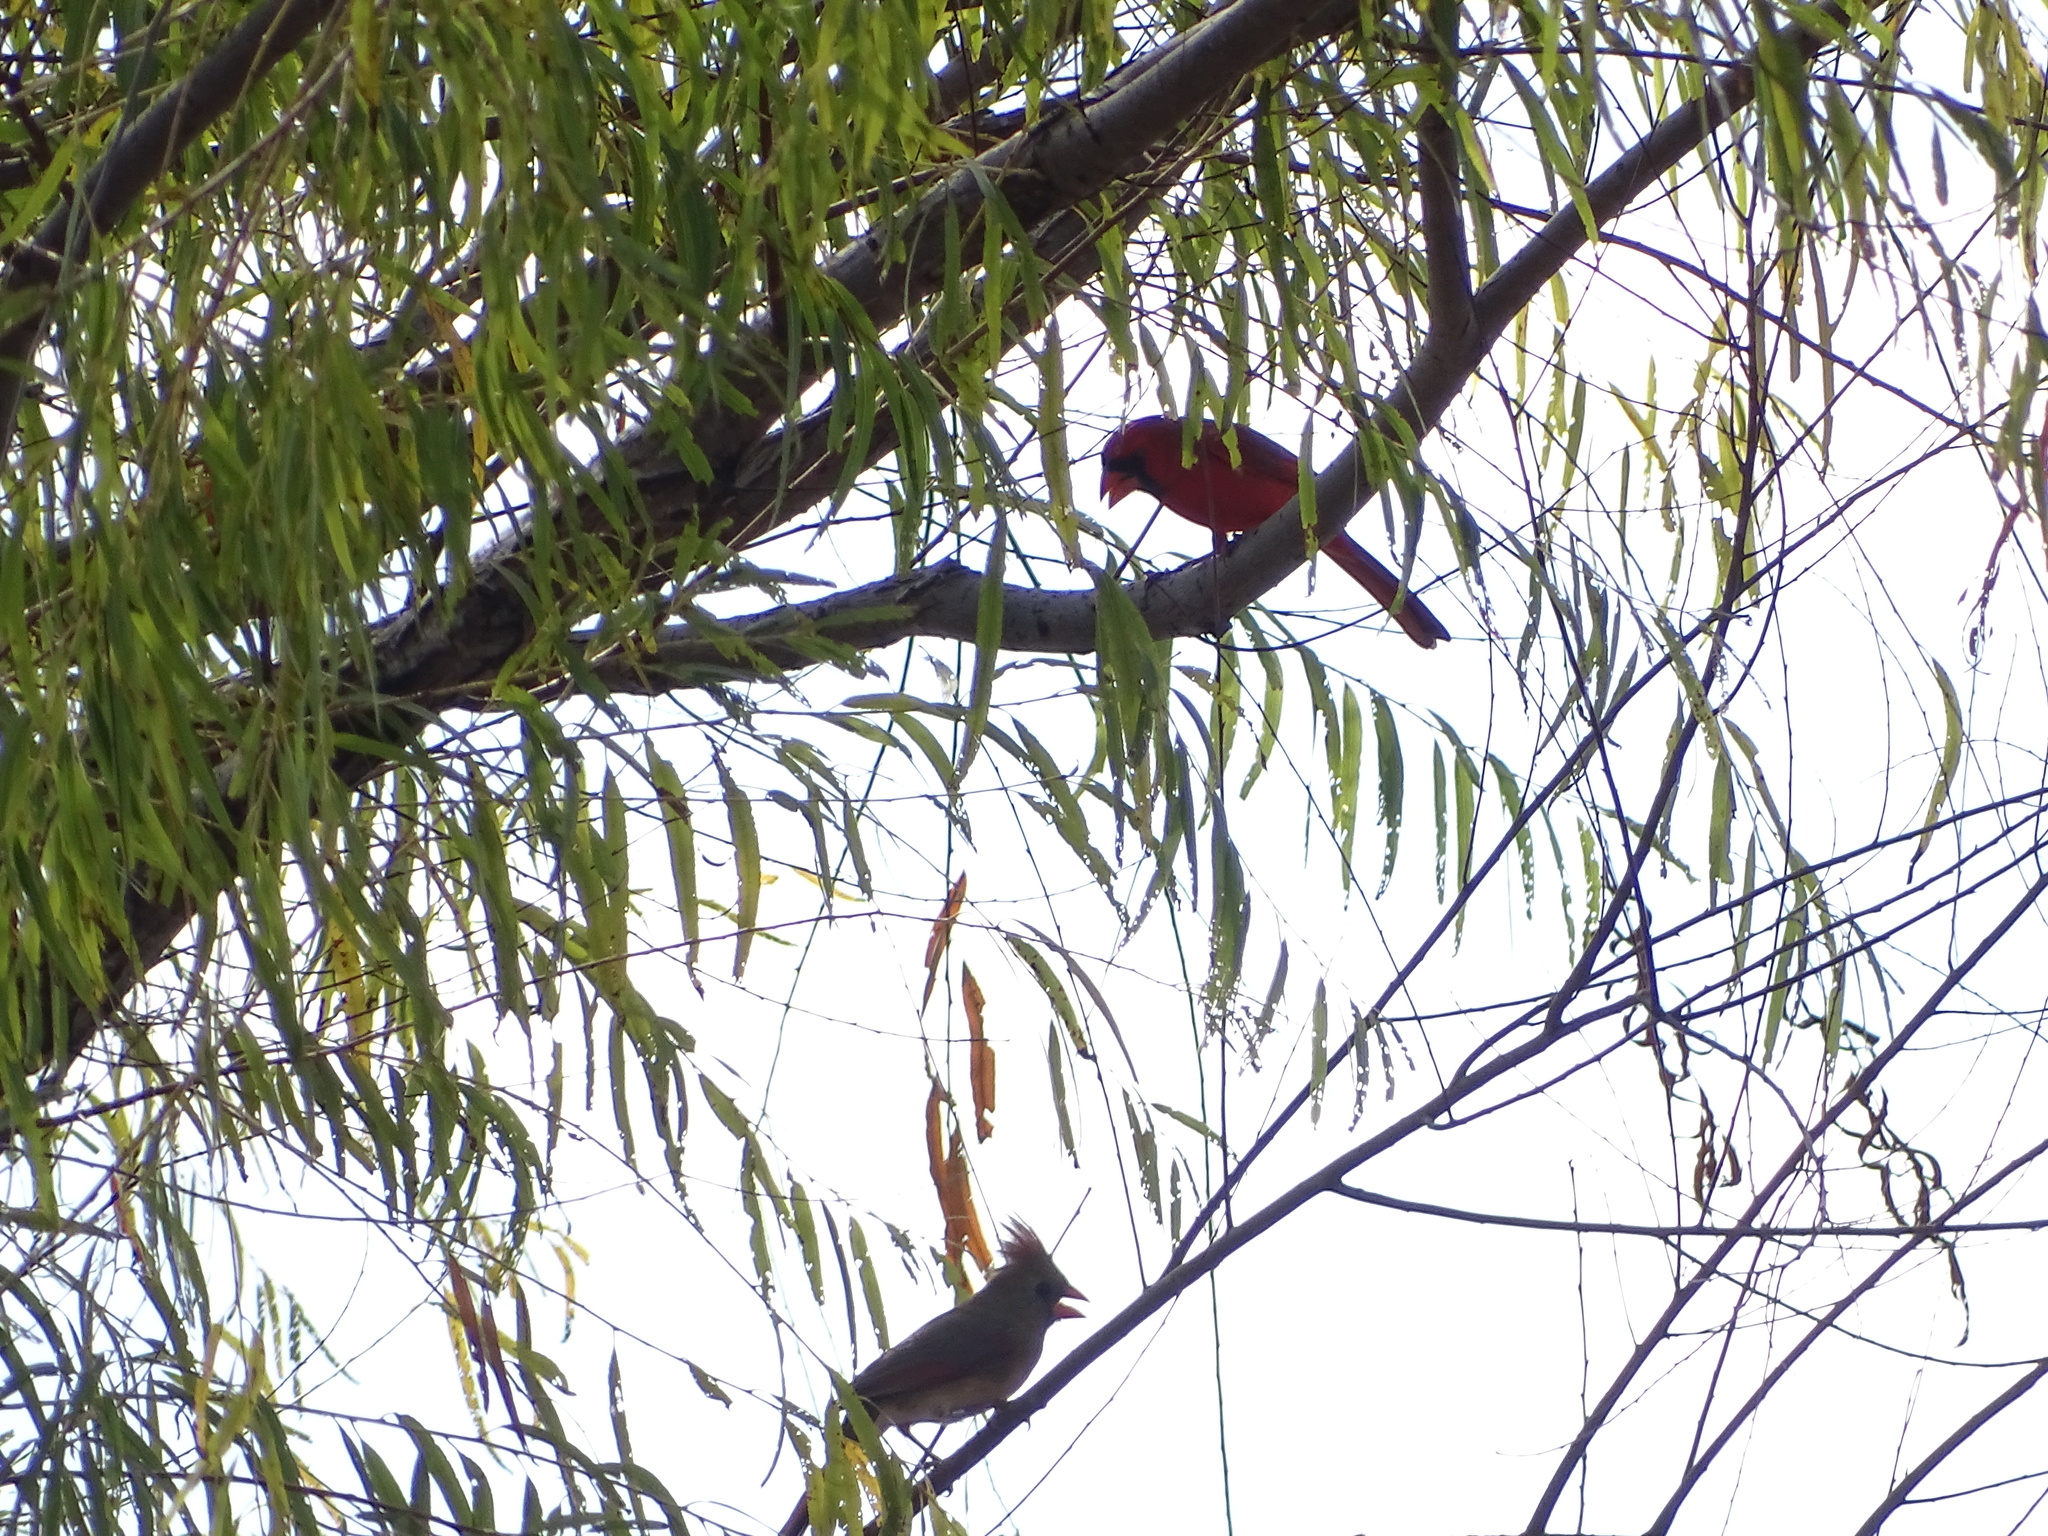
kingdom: Animalia
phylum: Chordata
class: Aves
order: Passeriformes
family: Cardinalidae
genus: Cardinalis
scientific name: Cardinalis cardinalis
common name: Northern cardinal
